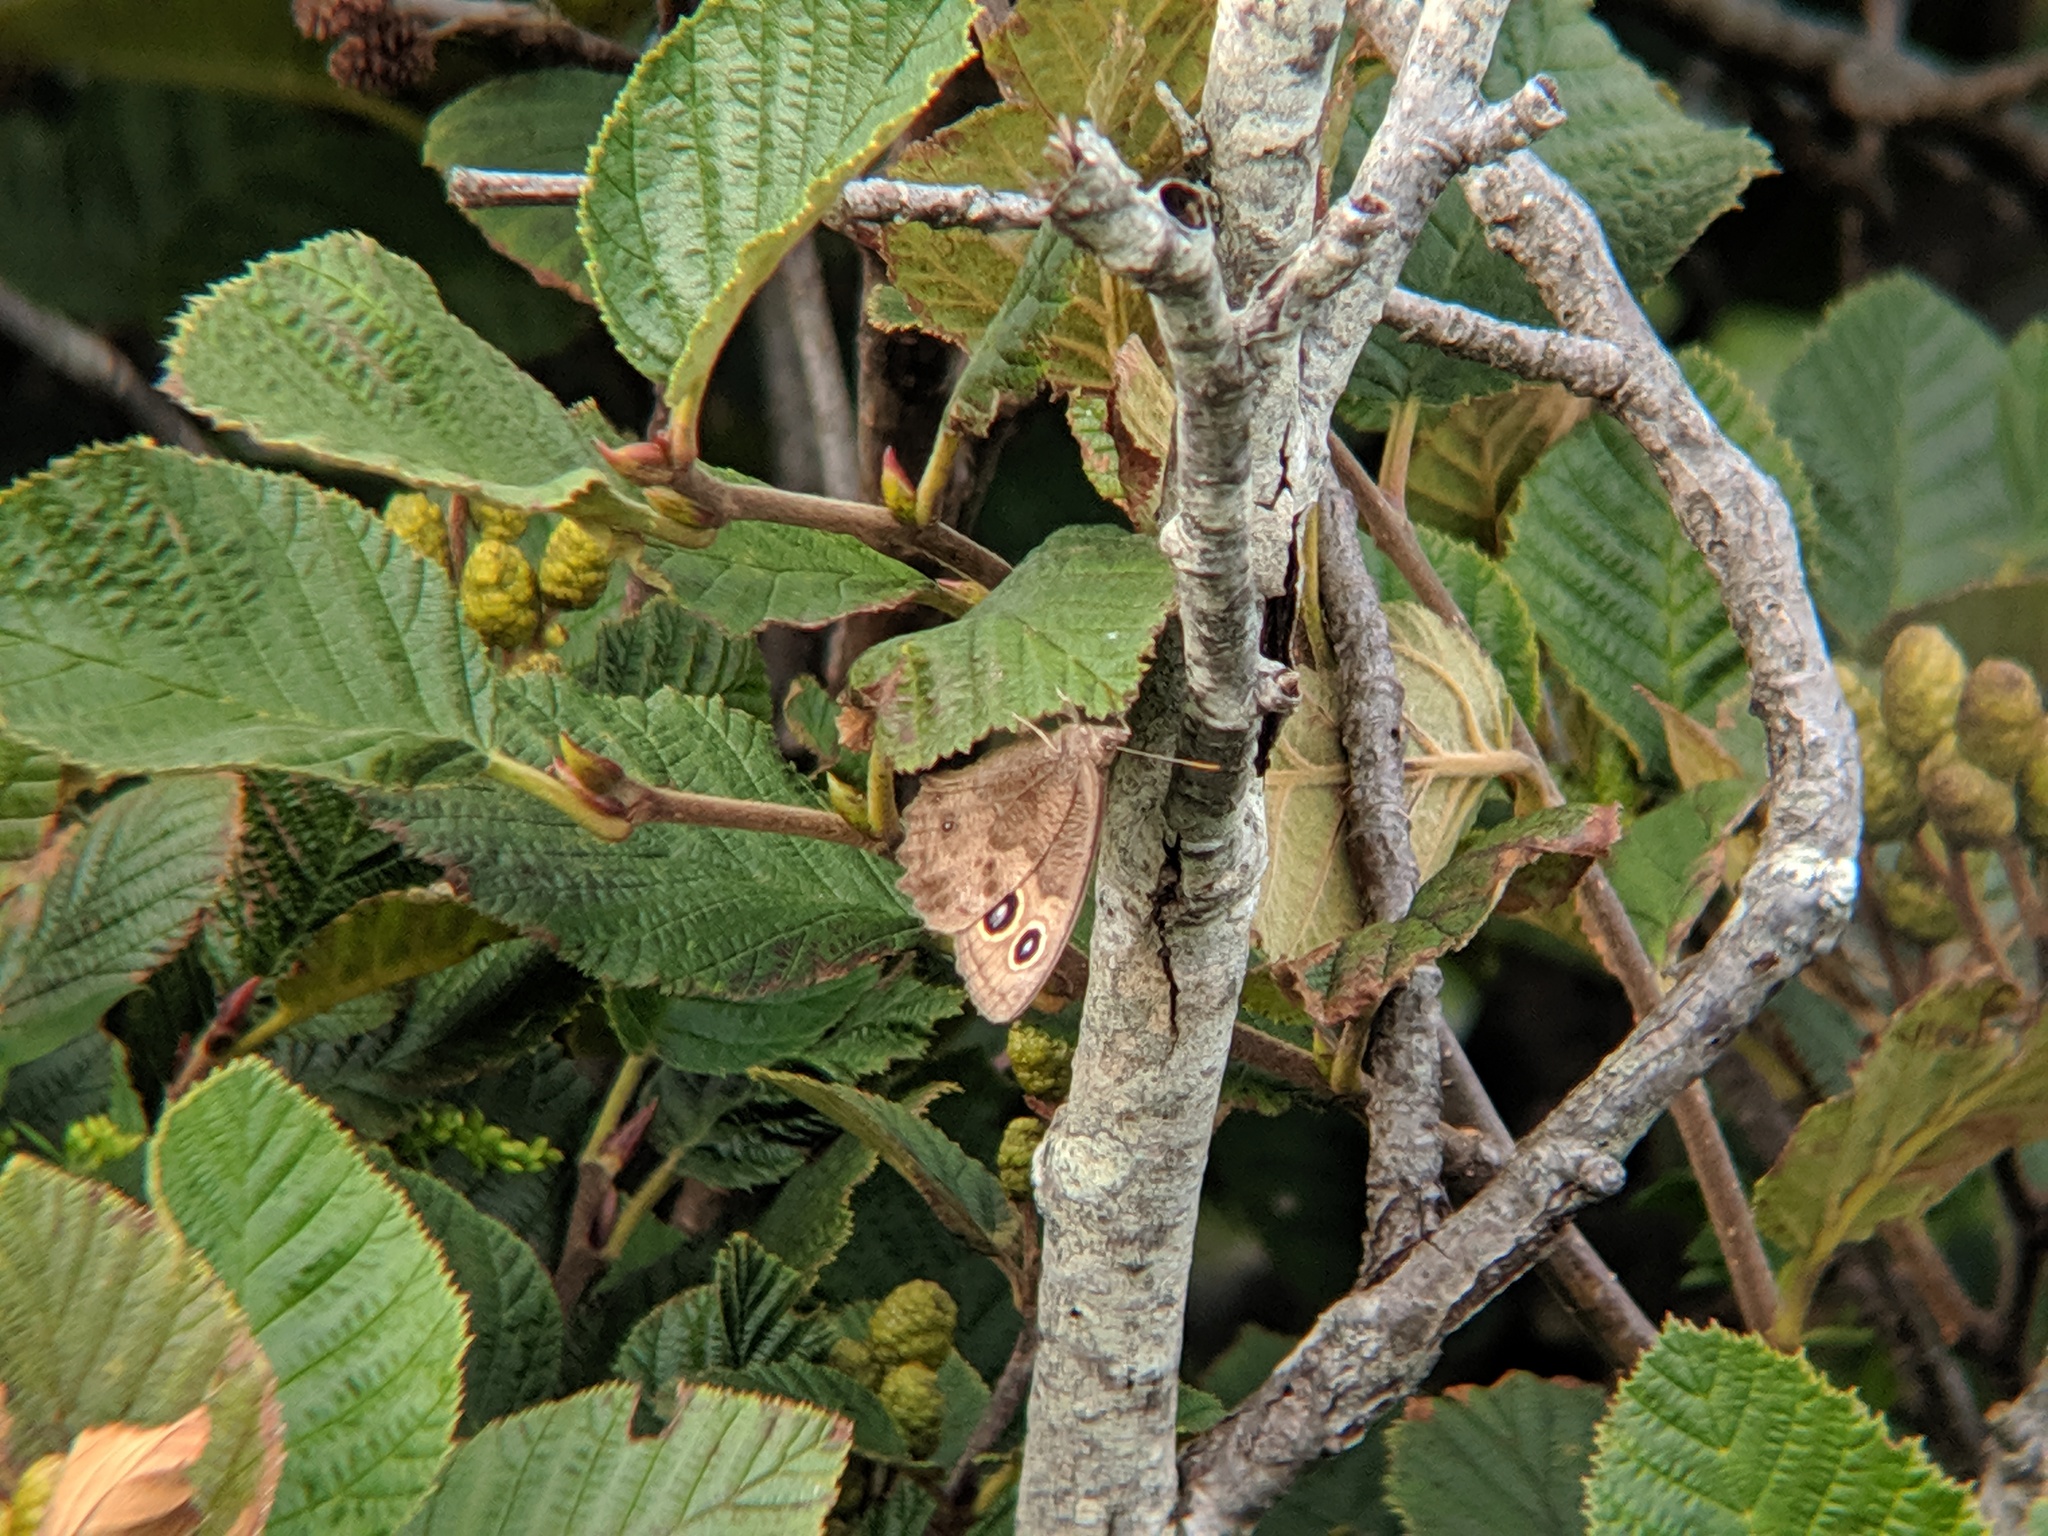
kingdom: Animalia
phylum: Arthropoda
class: Insecta
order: Lepidoptera
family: Nymphalidae
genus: Cercyonis
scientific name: Cercyonis pegala
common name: Common wood-nymph
